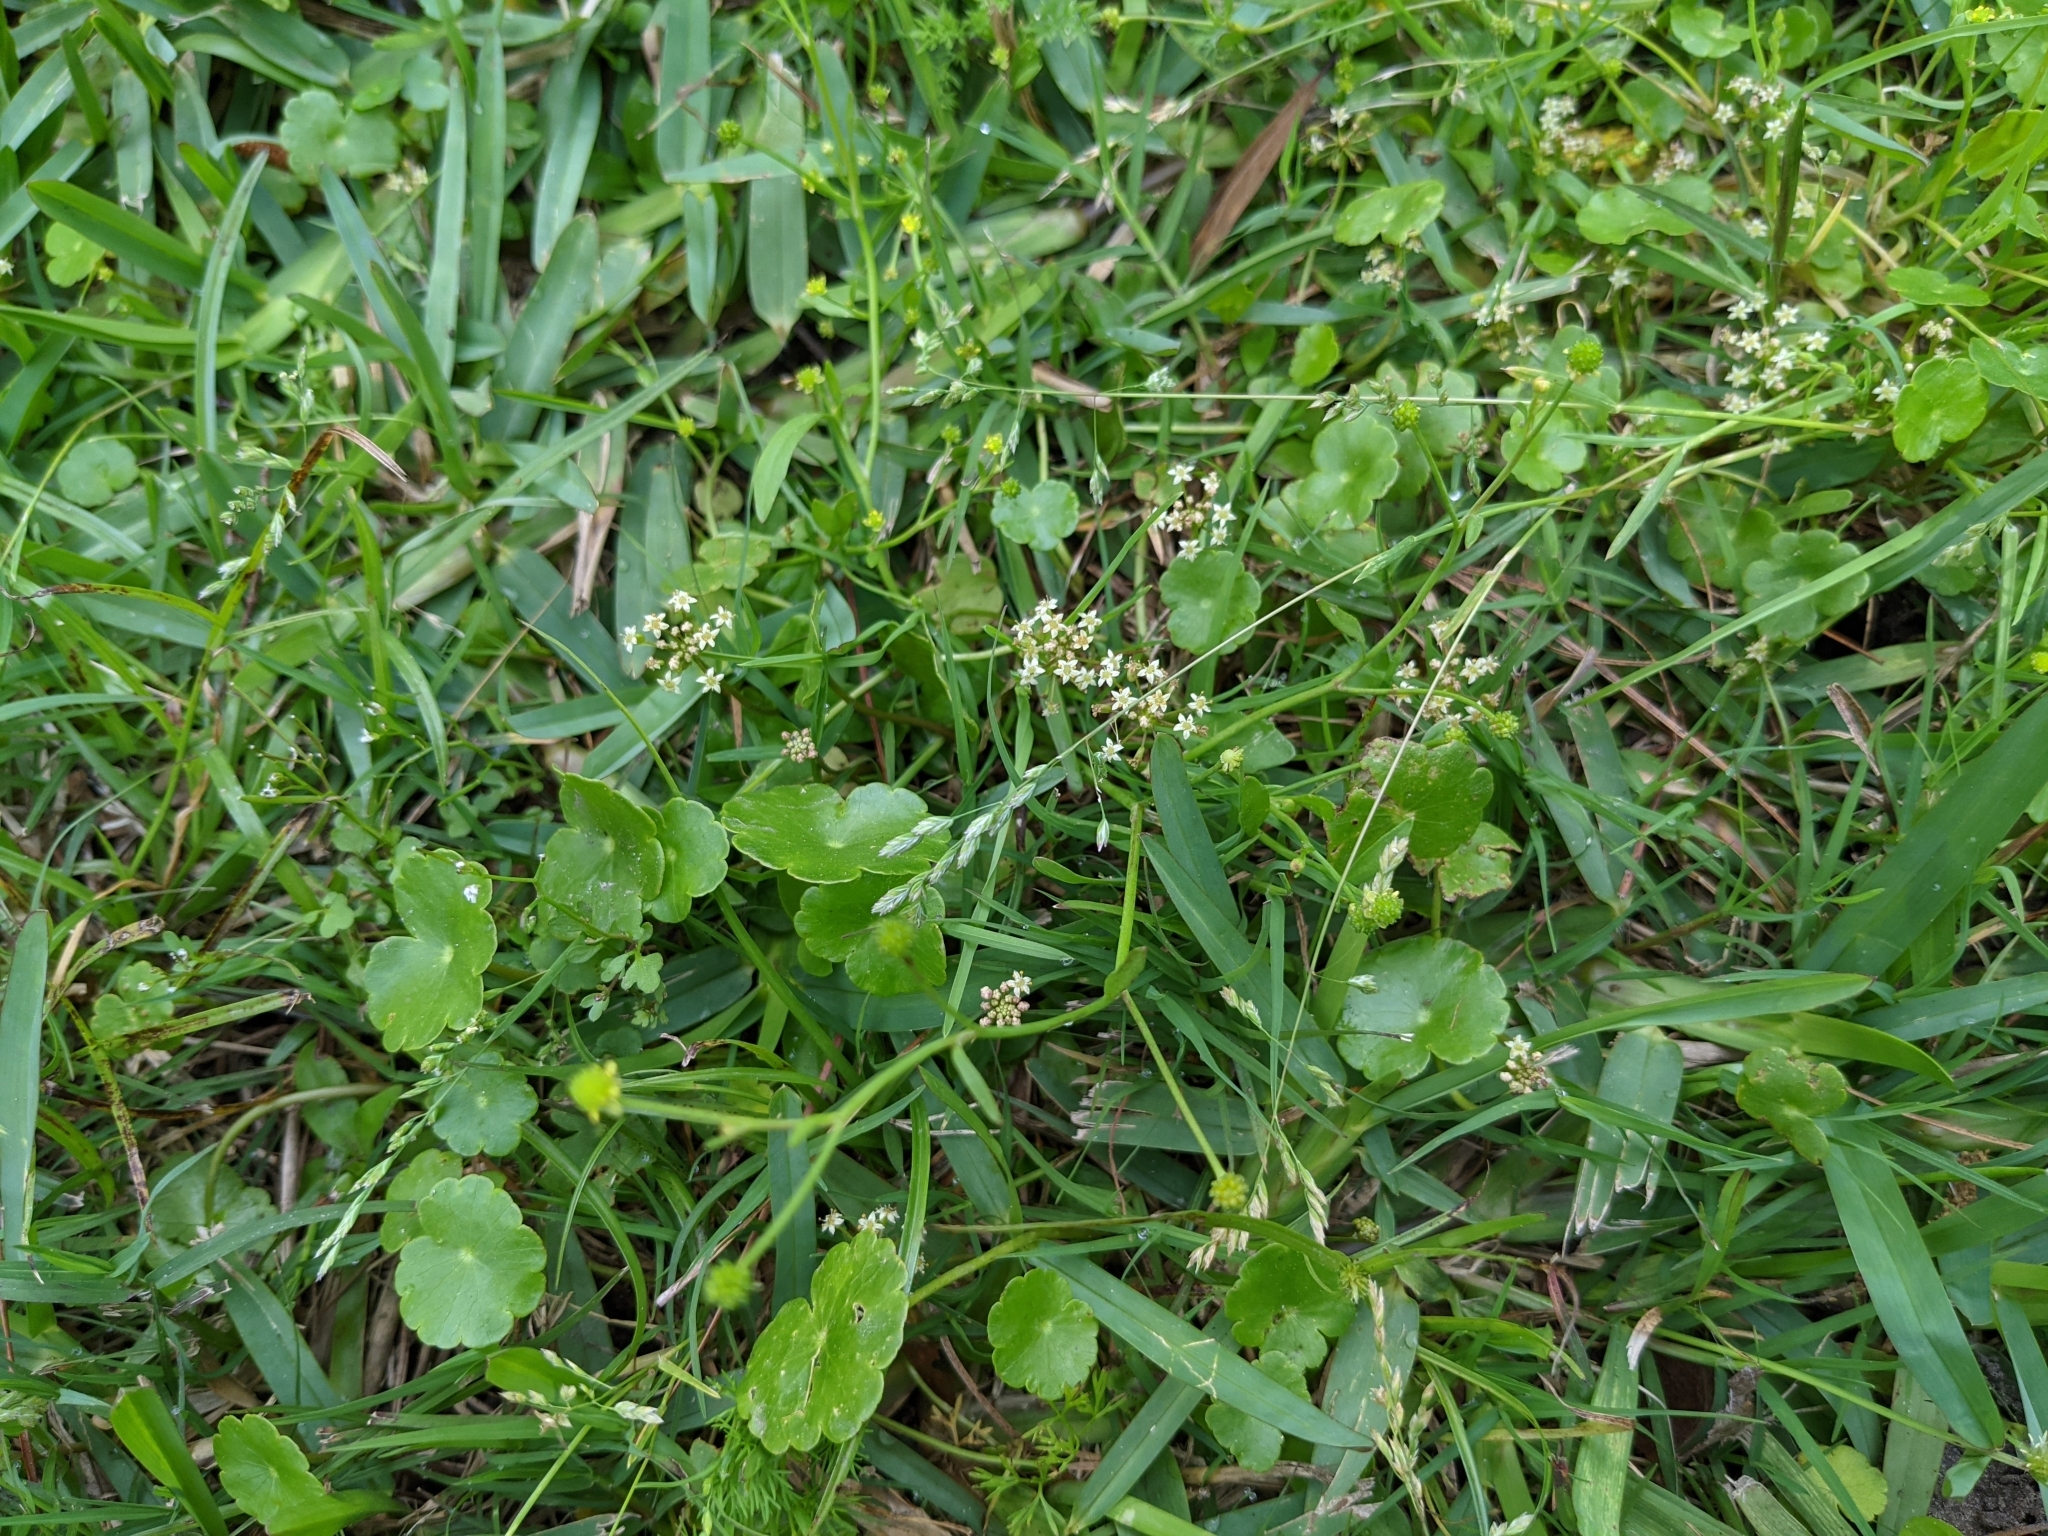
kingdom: Plantae
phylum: Tracheophyta
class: Magnoliopsida
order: Apiales
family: Araliaceae
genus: Hydrocotyle
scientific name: Hydrocotyle umbellata
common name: Water pennywort
